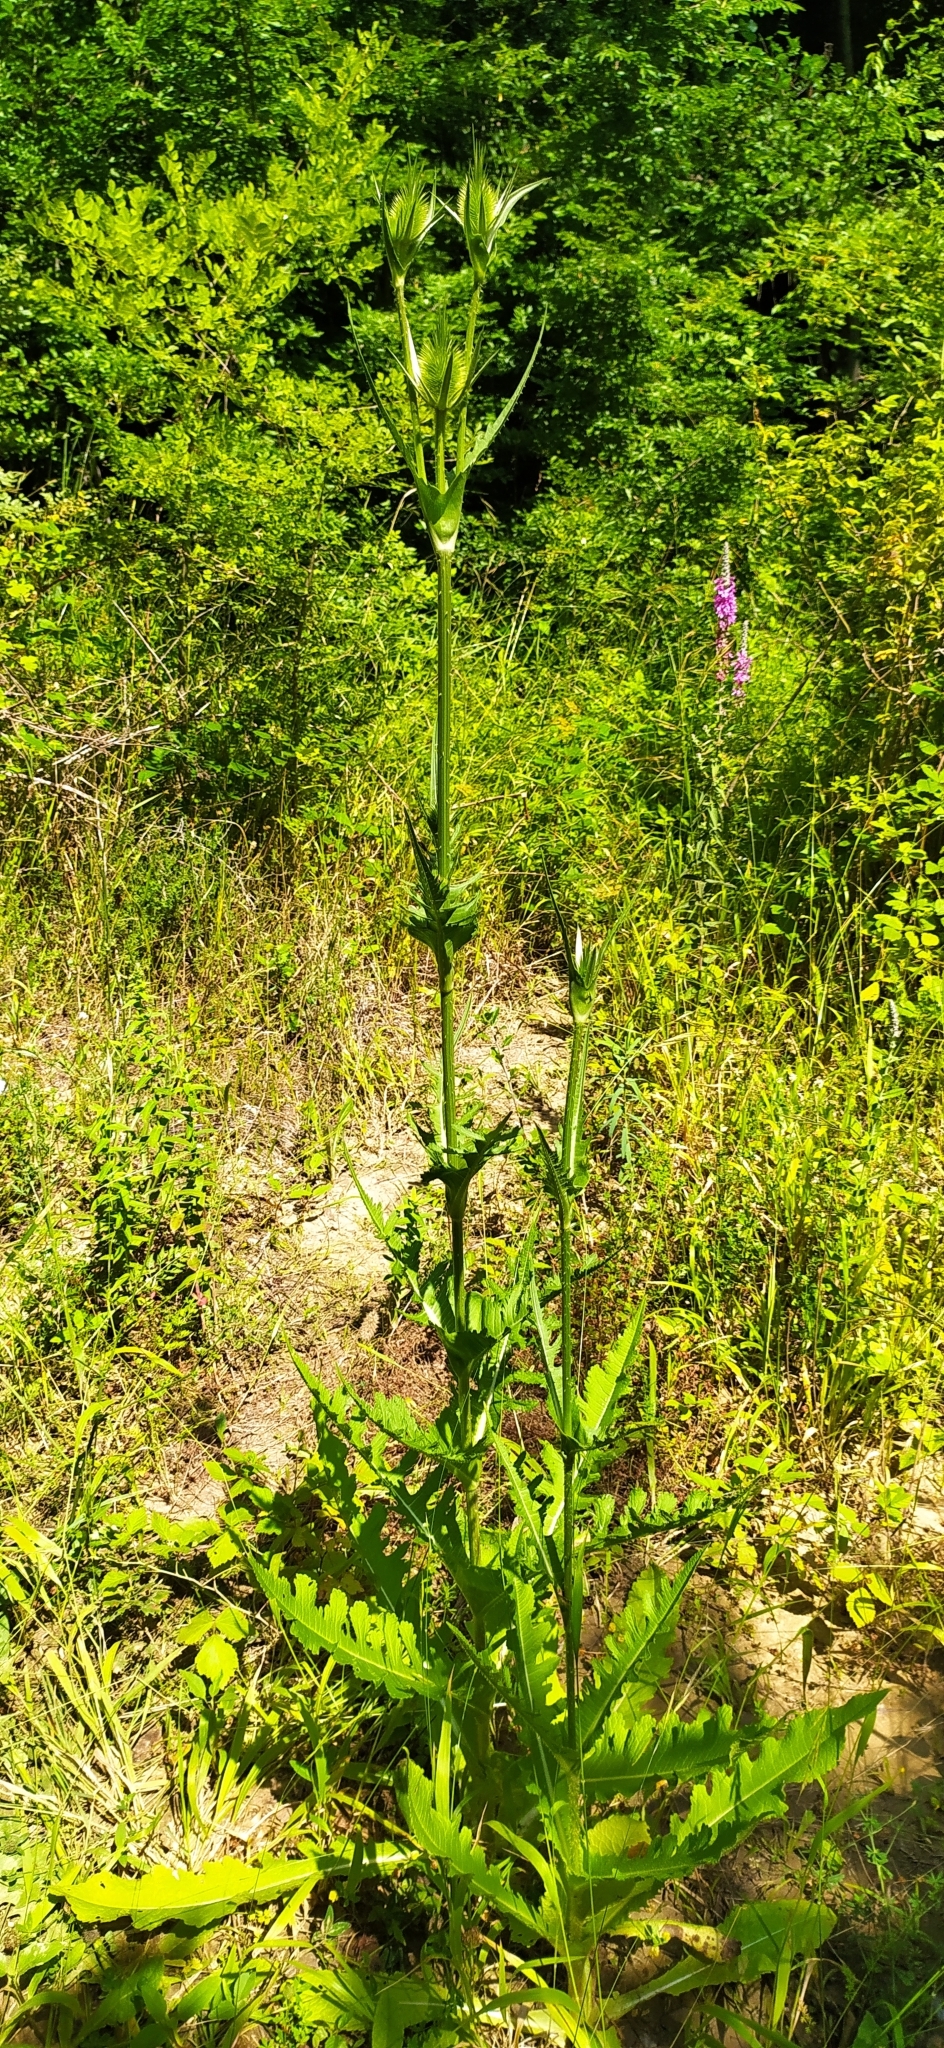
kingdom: Plantae
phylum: Tracheophyta
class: Magnoliopsida
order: Dipsacales
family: Caprifoliaceae
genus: Dipsacus
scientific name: Dipsacus laciniatus
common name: Cut-leaved teasel
